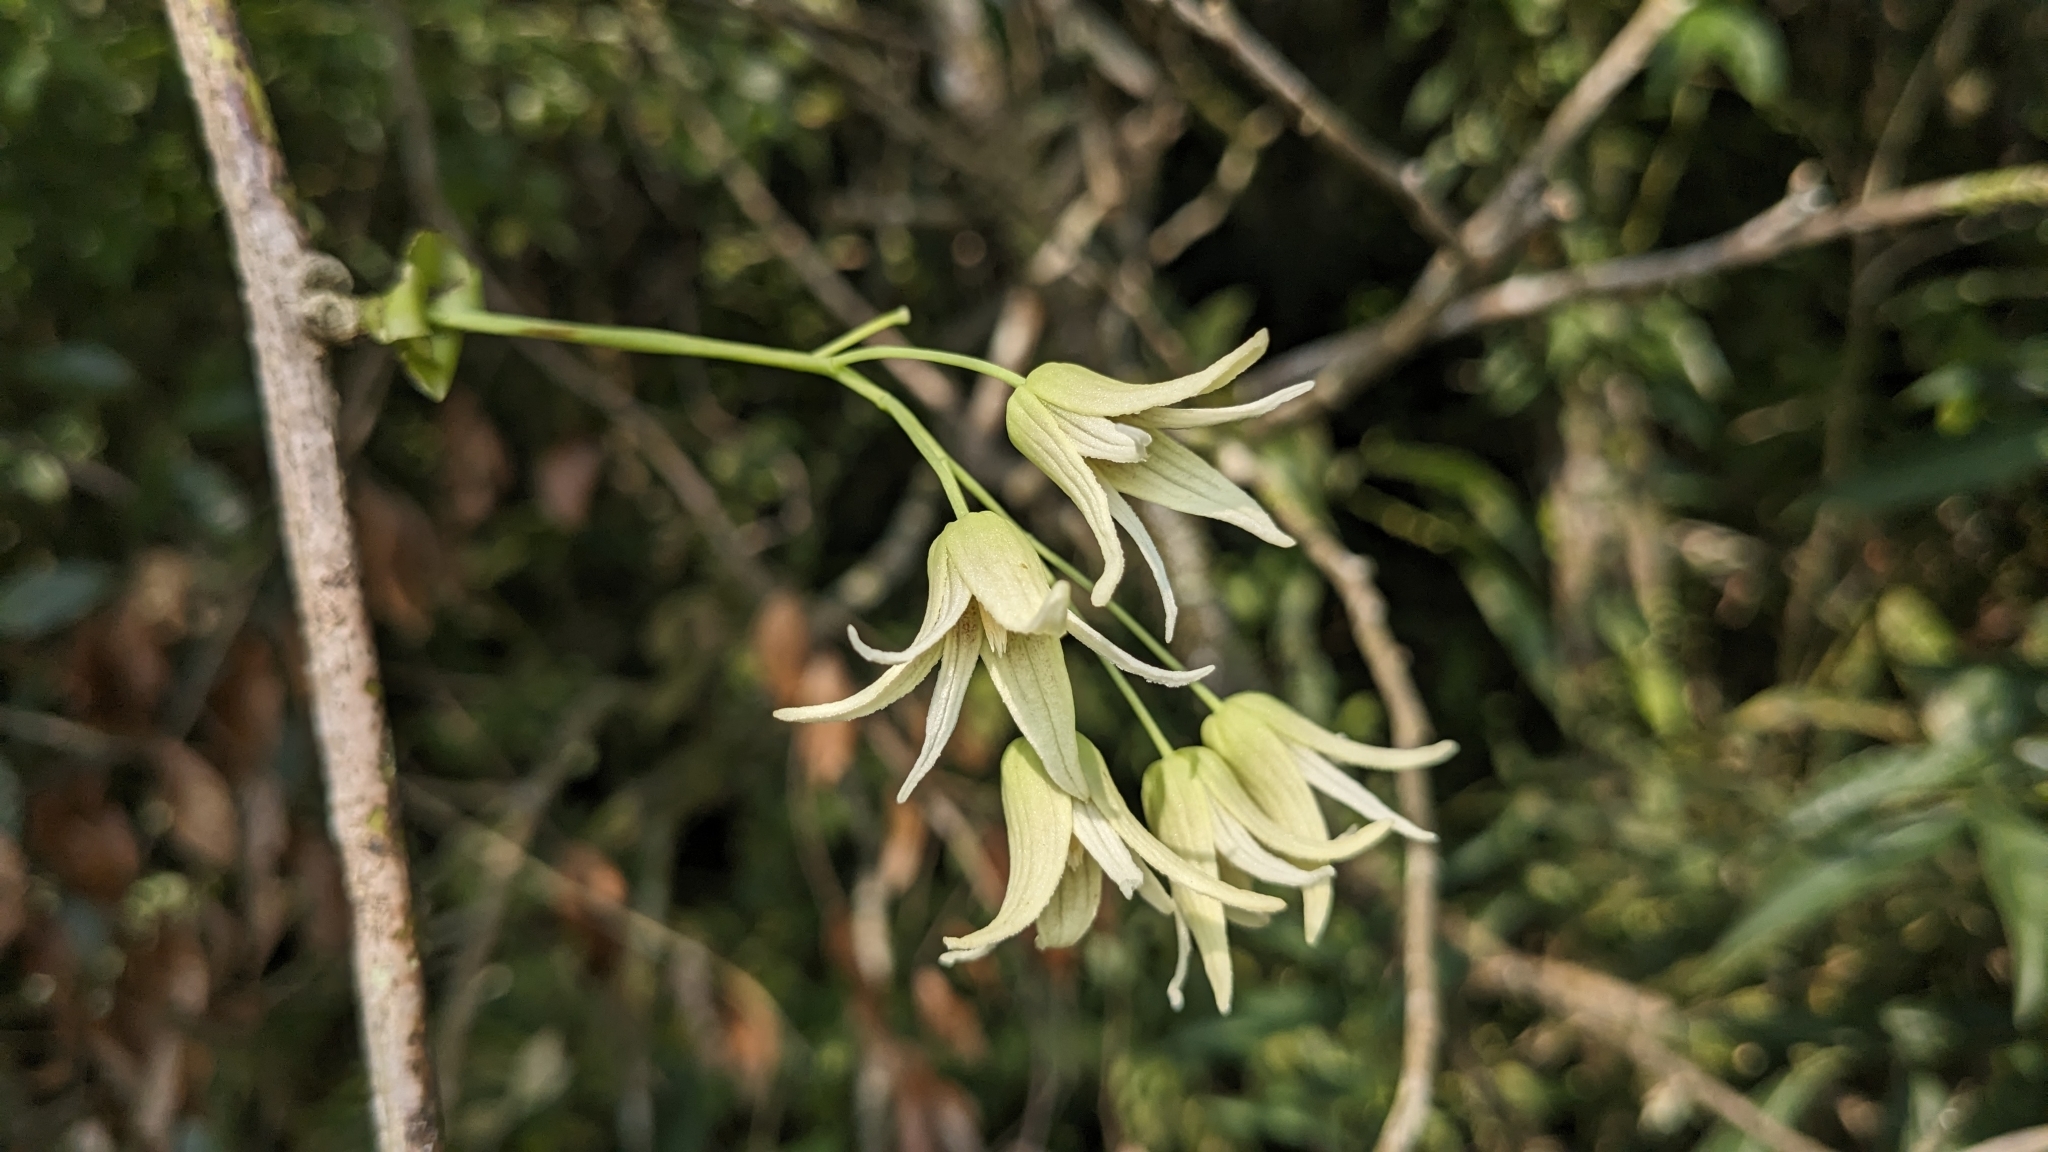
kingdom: Plantae
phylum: Tracheophyta
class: Magnoliopsida
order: Ranunculales
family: Lardizabalaceae
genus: Stauntonia
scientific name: Stauntonia obovatifoliola
